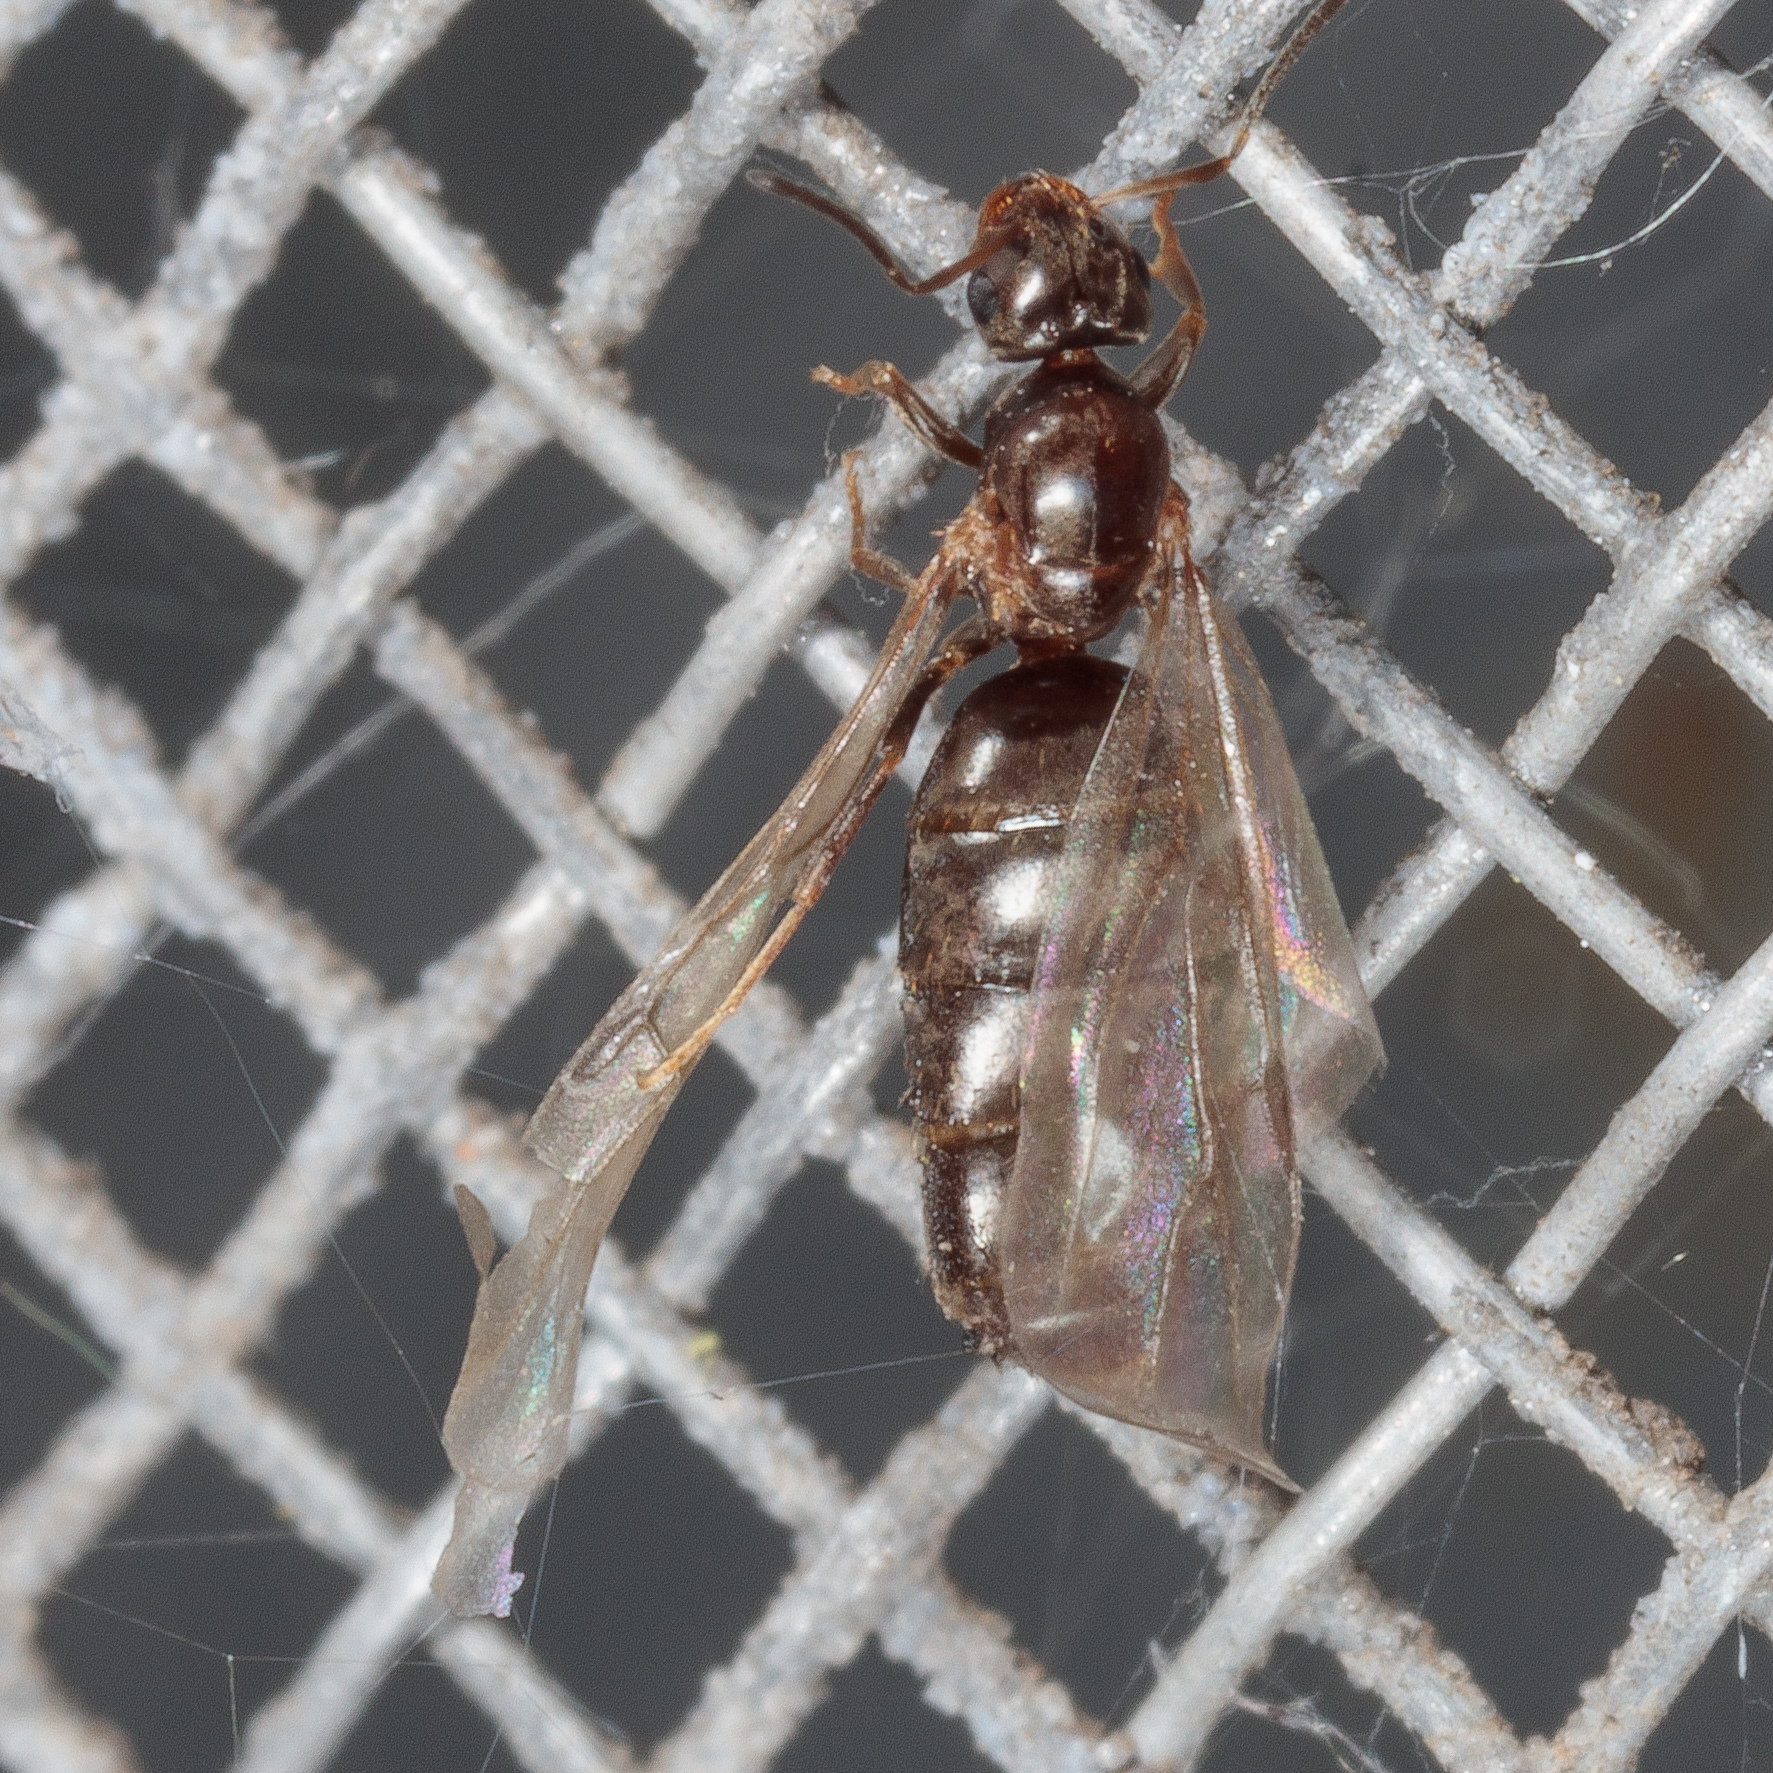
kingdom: Animalia
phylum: Arthropoda
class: Insecta
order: Hymenoptera
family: Formicidae
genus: Brachymyrmex
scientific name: Brachymyrmex patagonicus
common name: Dark rover ant
